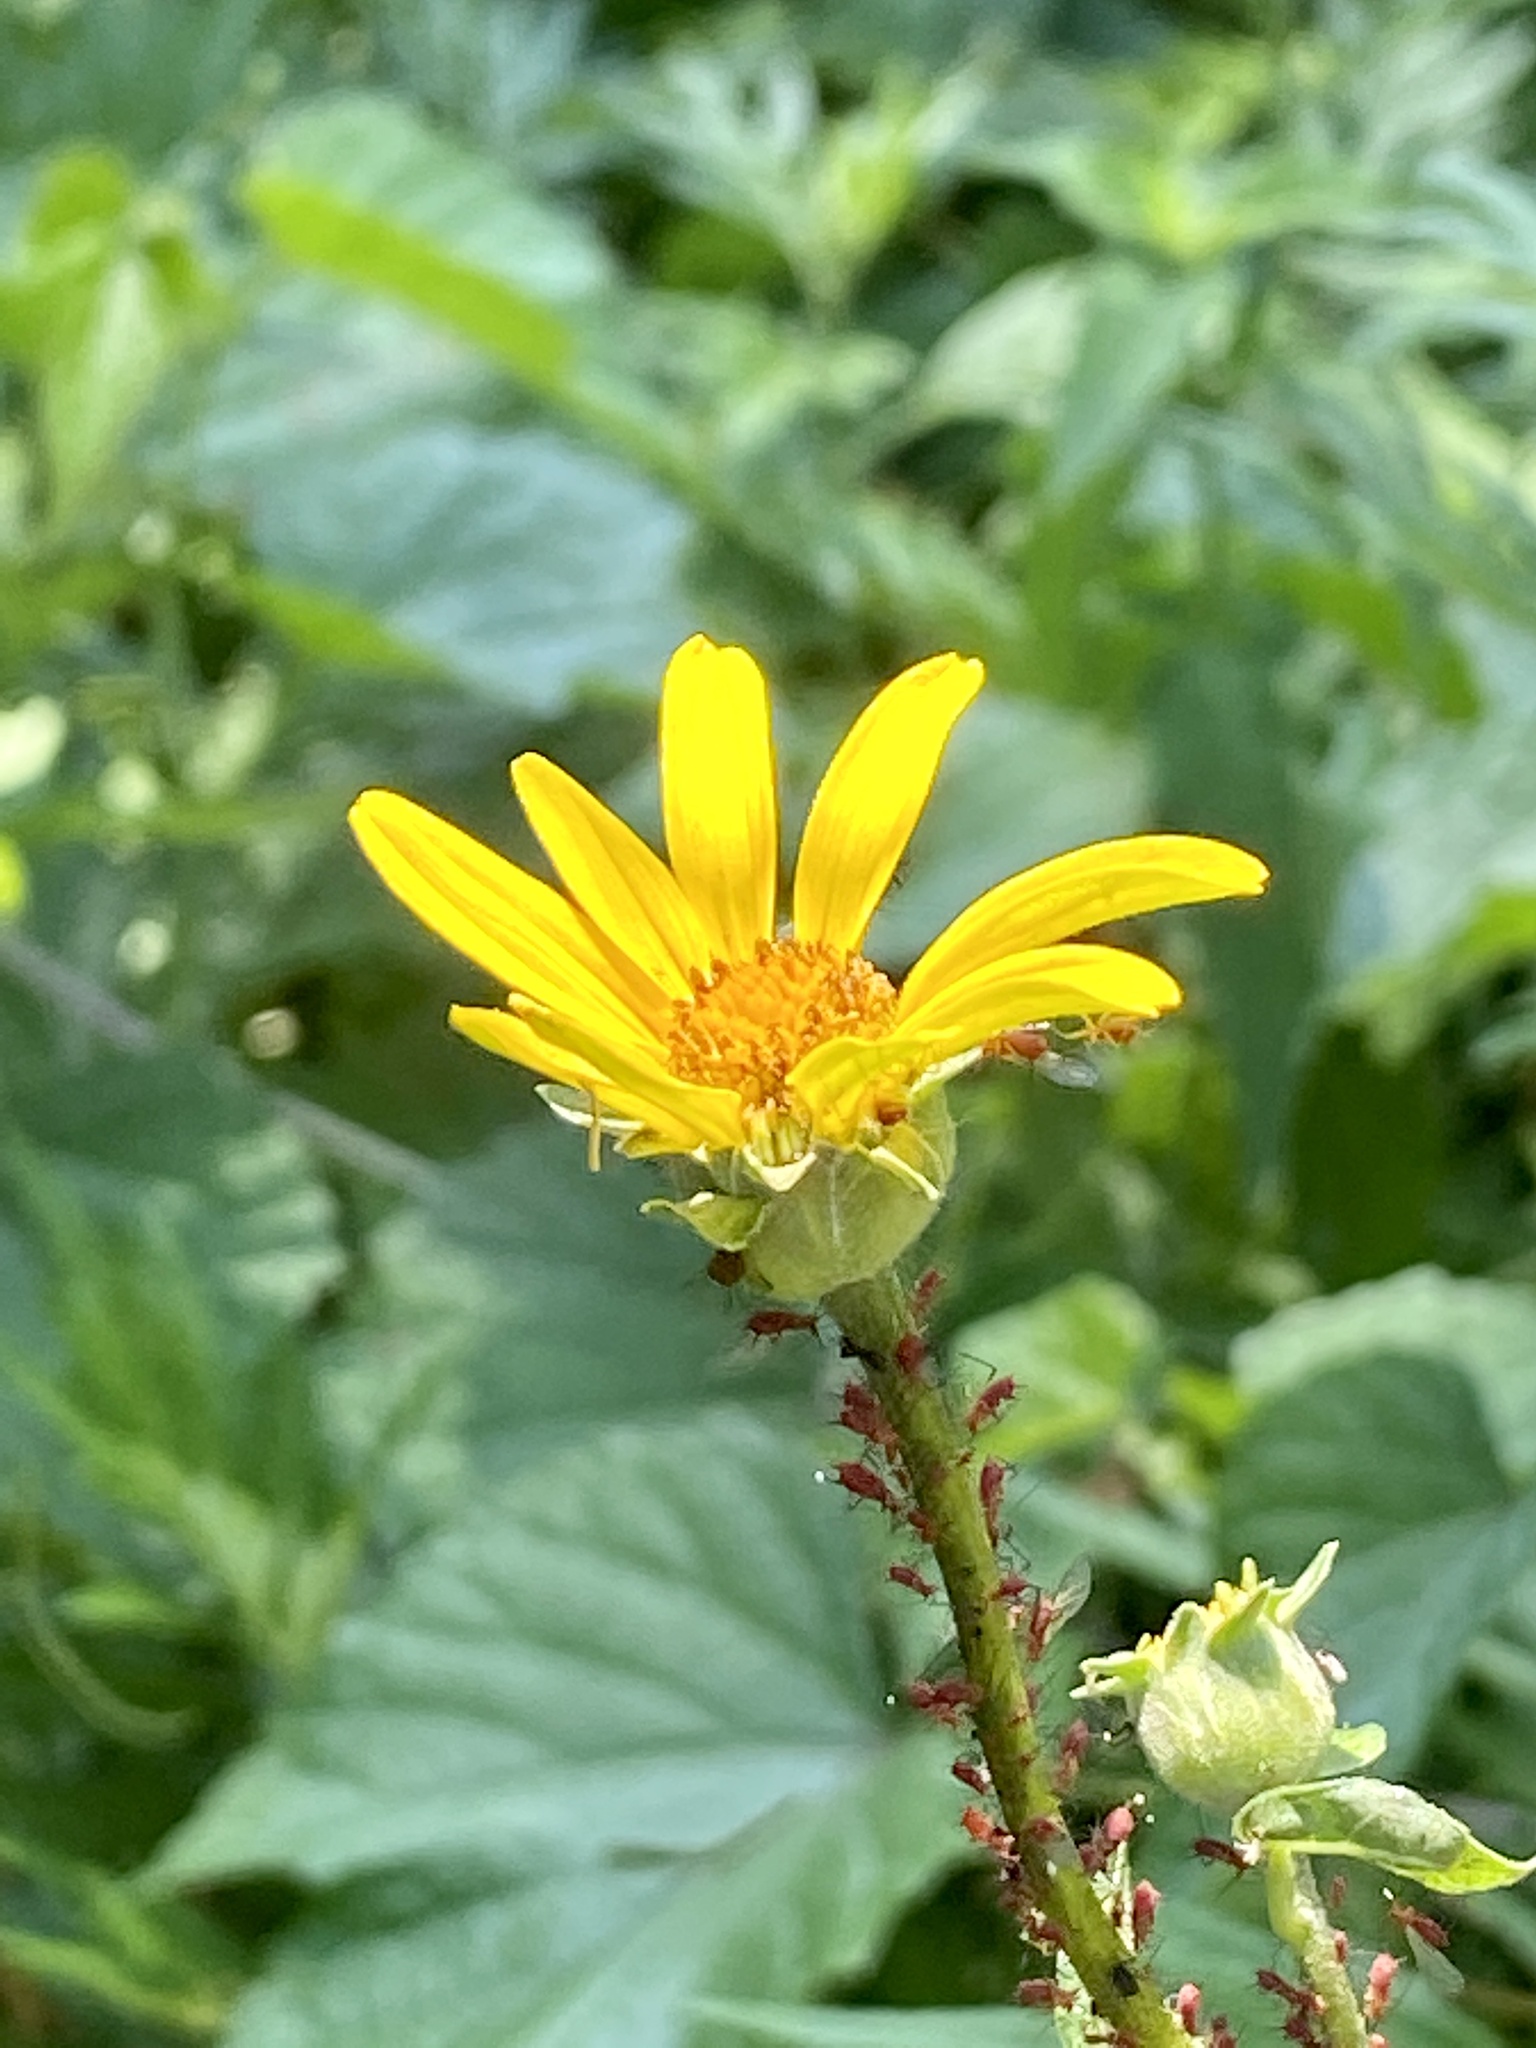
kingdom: Animalia
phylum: Arthropoda
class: Insecta
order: Hemiptera
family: Aphididae
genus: Uroleucon
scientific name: Uroleucon
